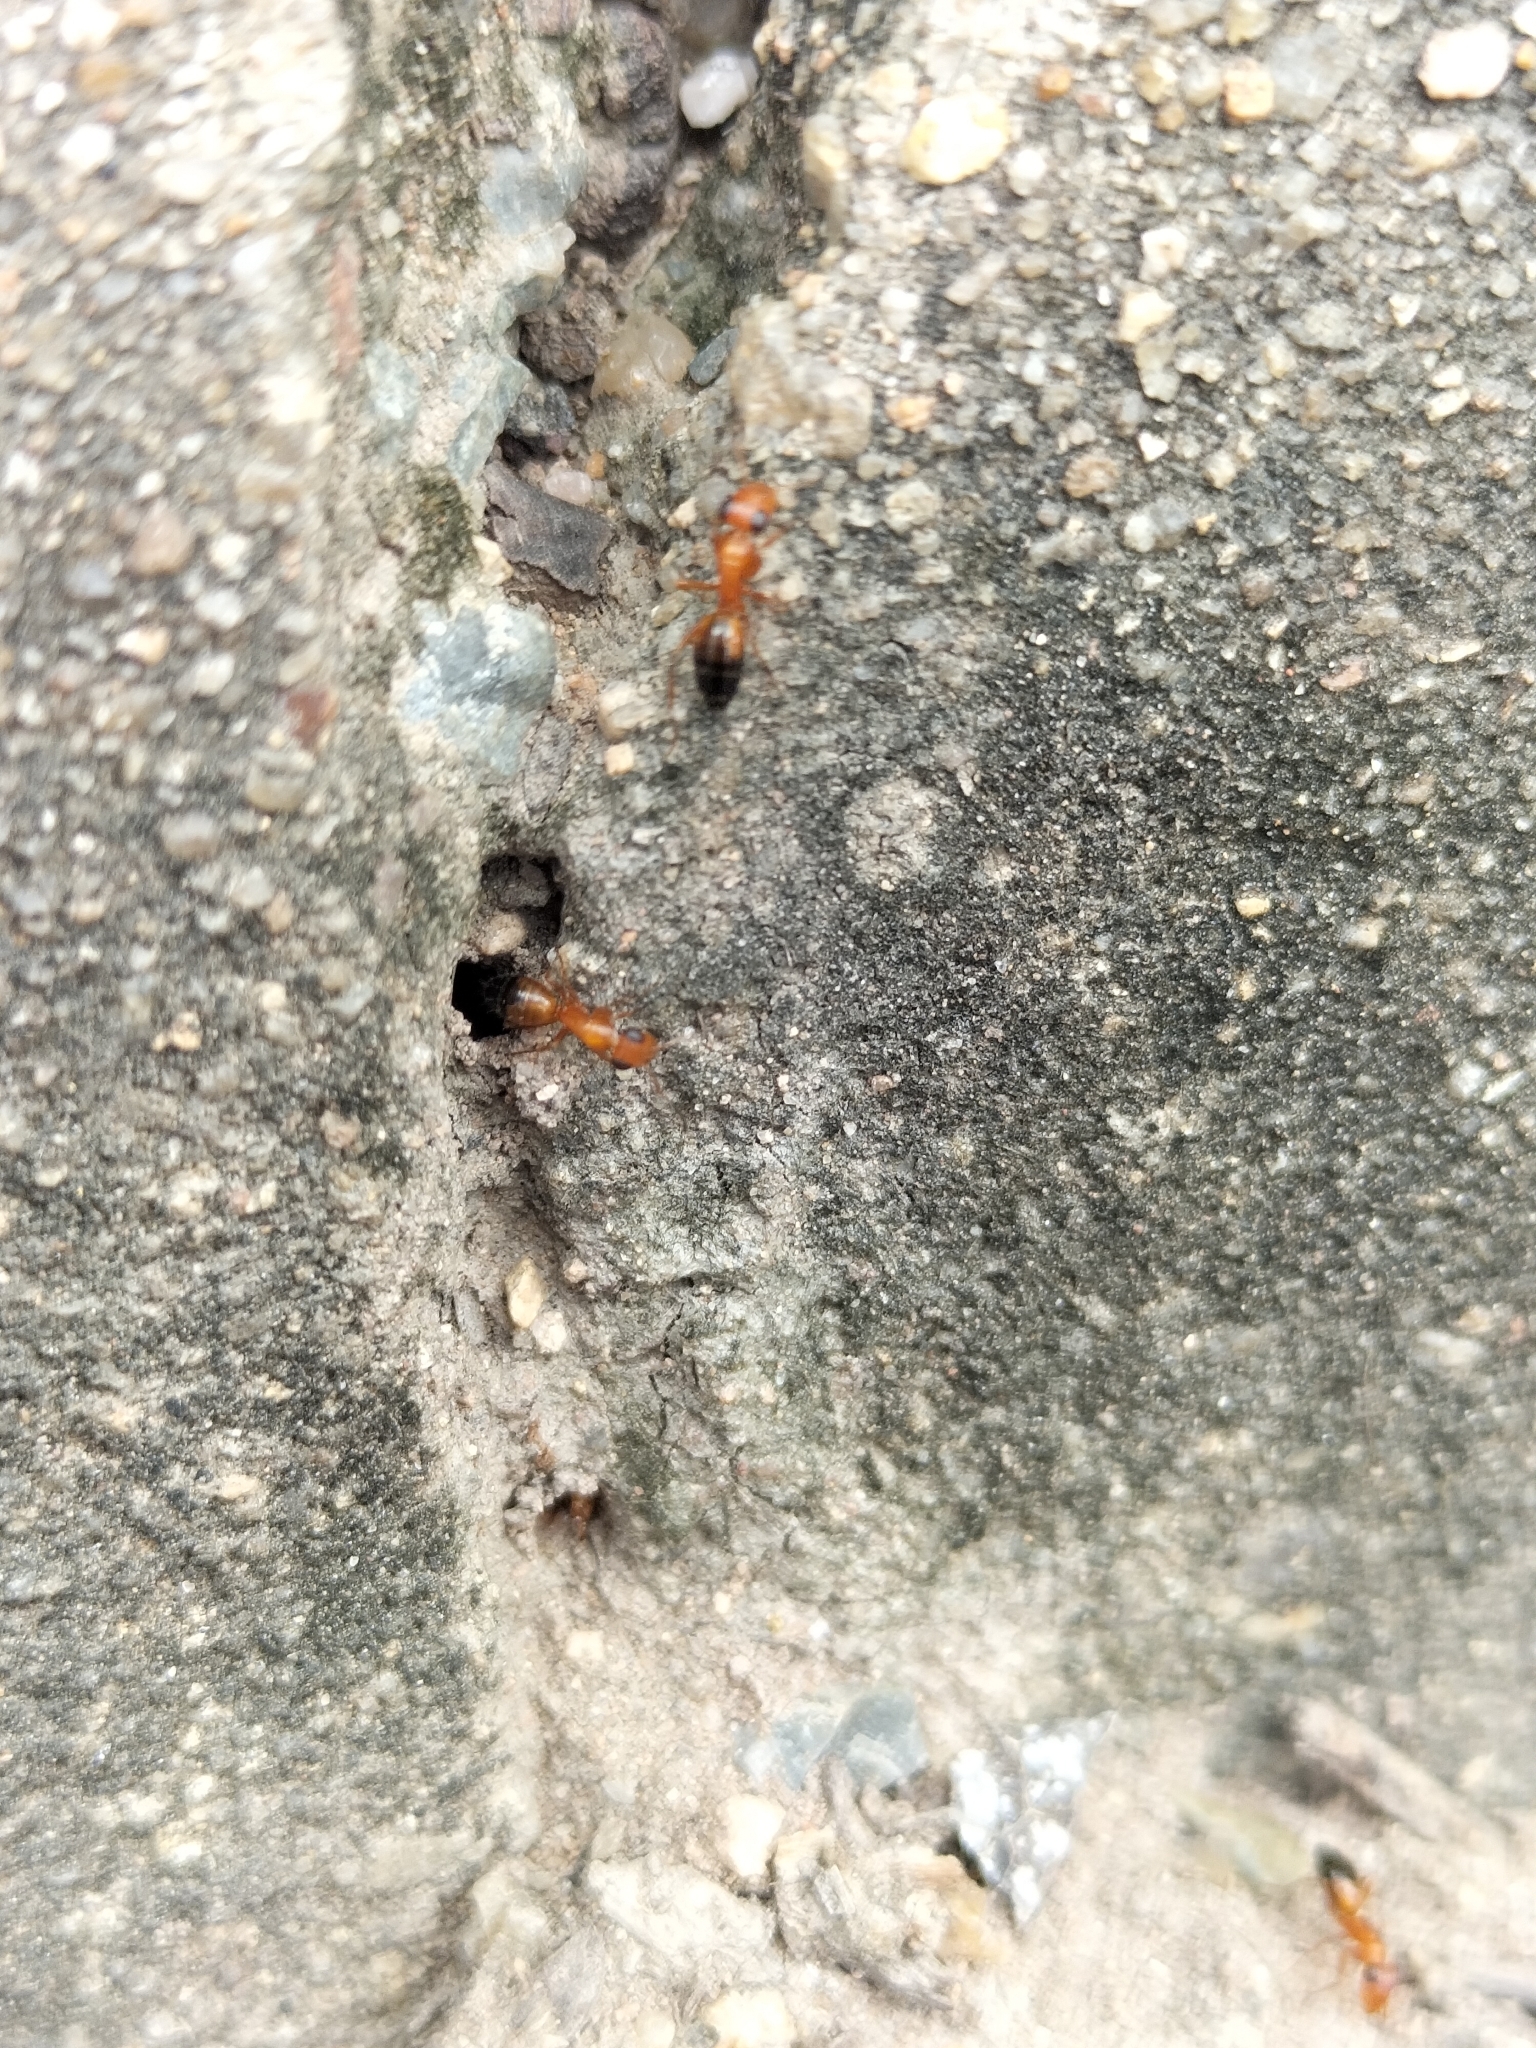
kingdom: Animalia
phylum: Arthropoda
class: Insecta
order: Hymenoptera
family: Formicidae
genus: Opisthopsis
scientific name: Opisthopsis haddoni
